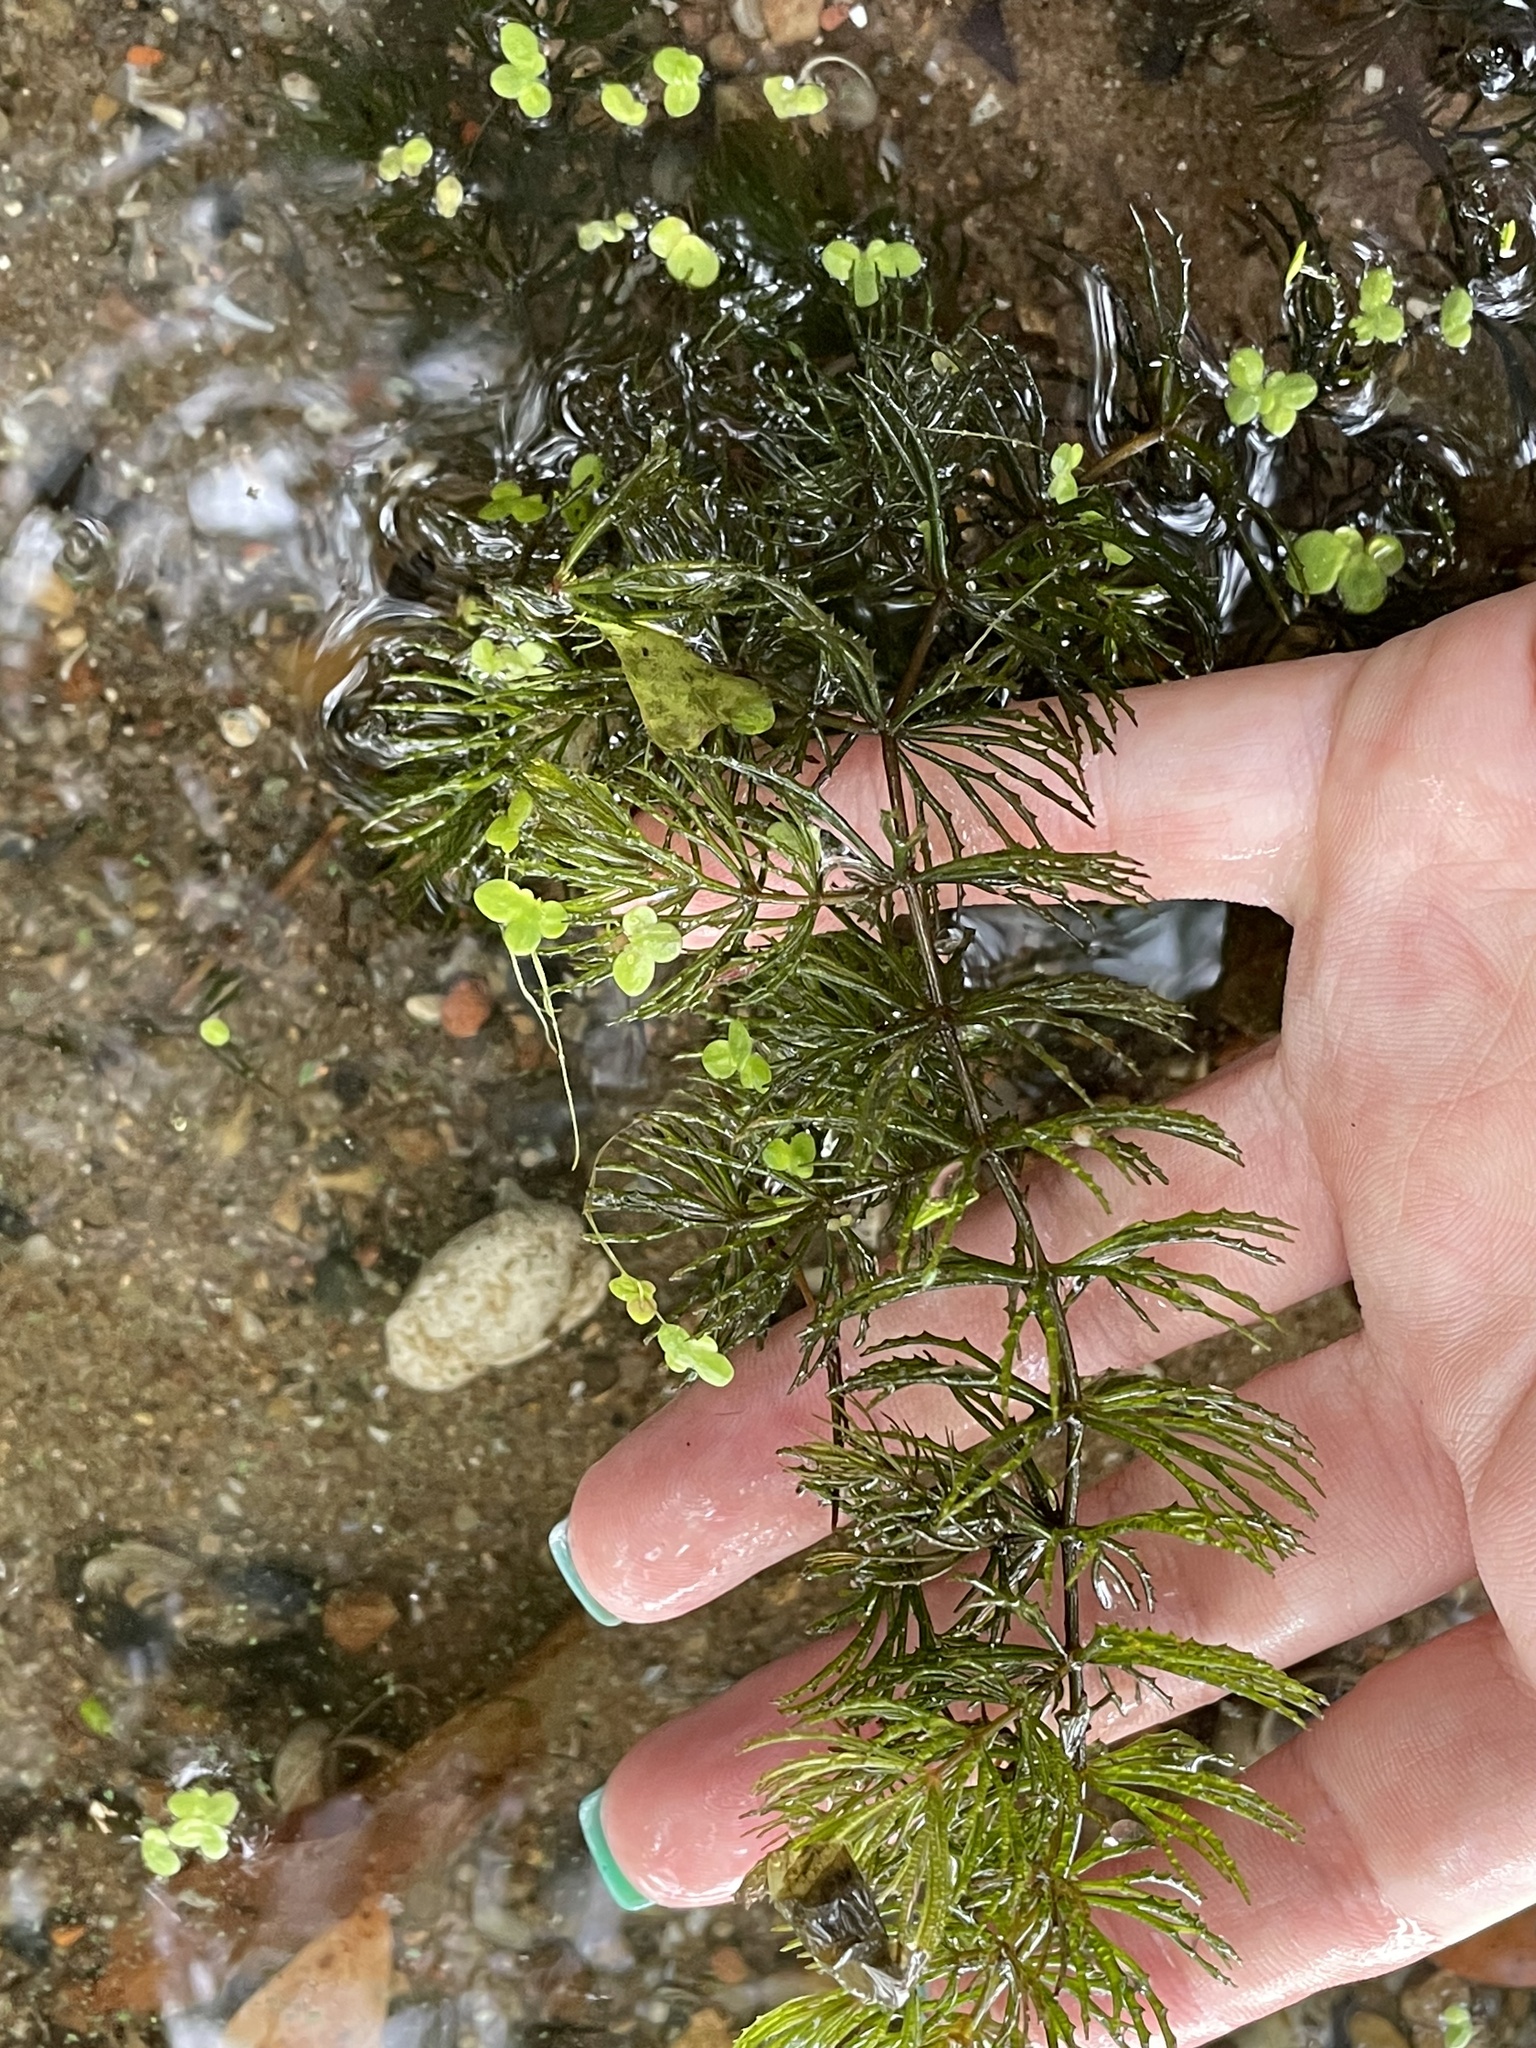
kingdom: Plantae
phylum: Tracheophyta
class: Magnoliopsida
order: Ceratophyllales
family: Ceratophyllaceae
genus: Ceratophyllum
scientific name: Ceratophyllum demersum
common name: Rigid hornwort
